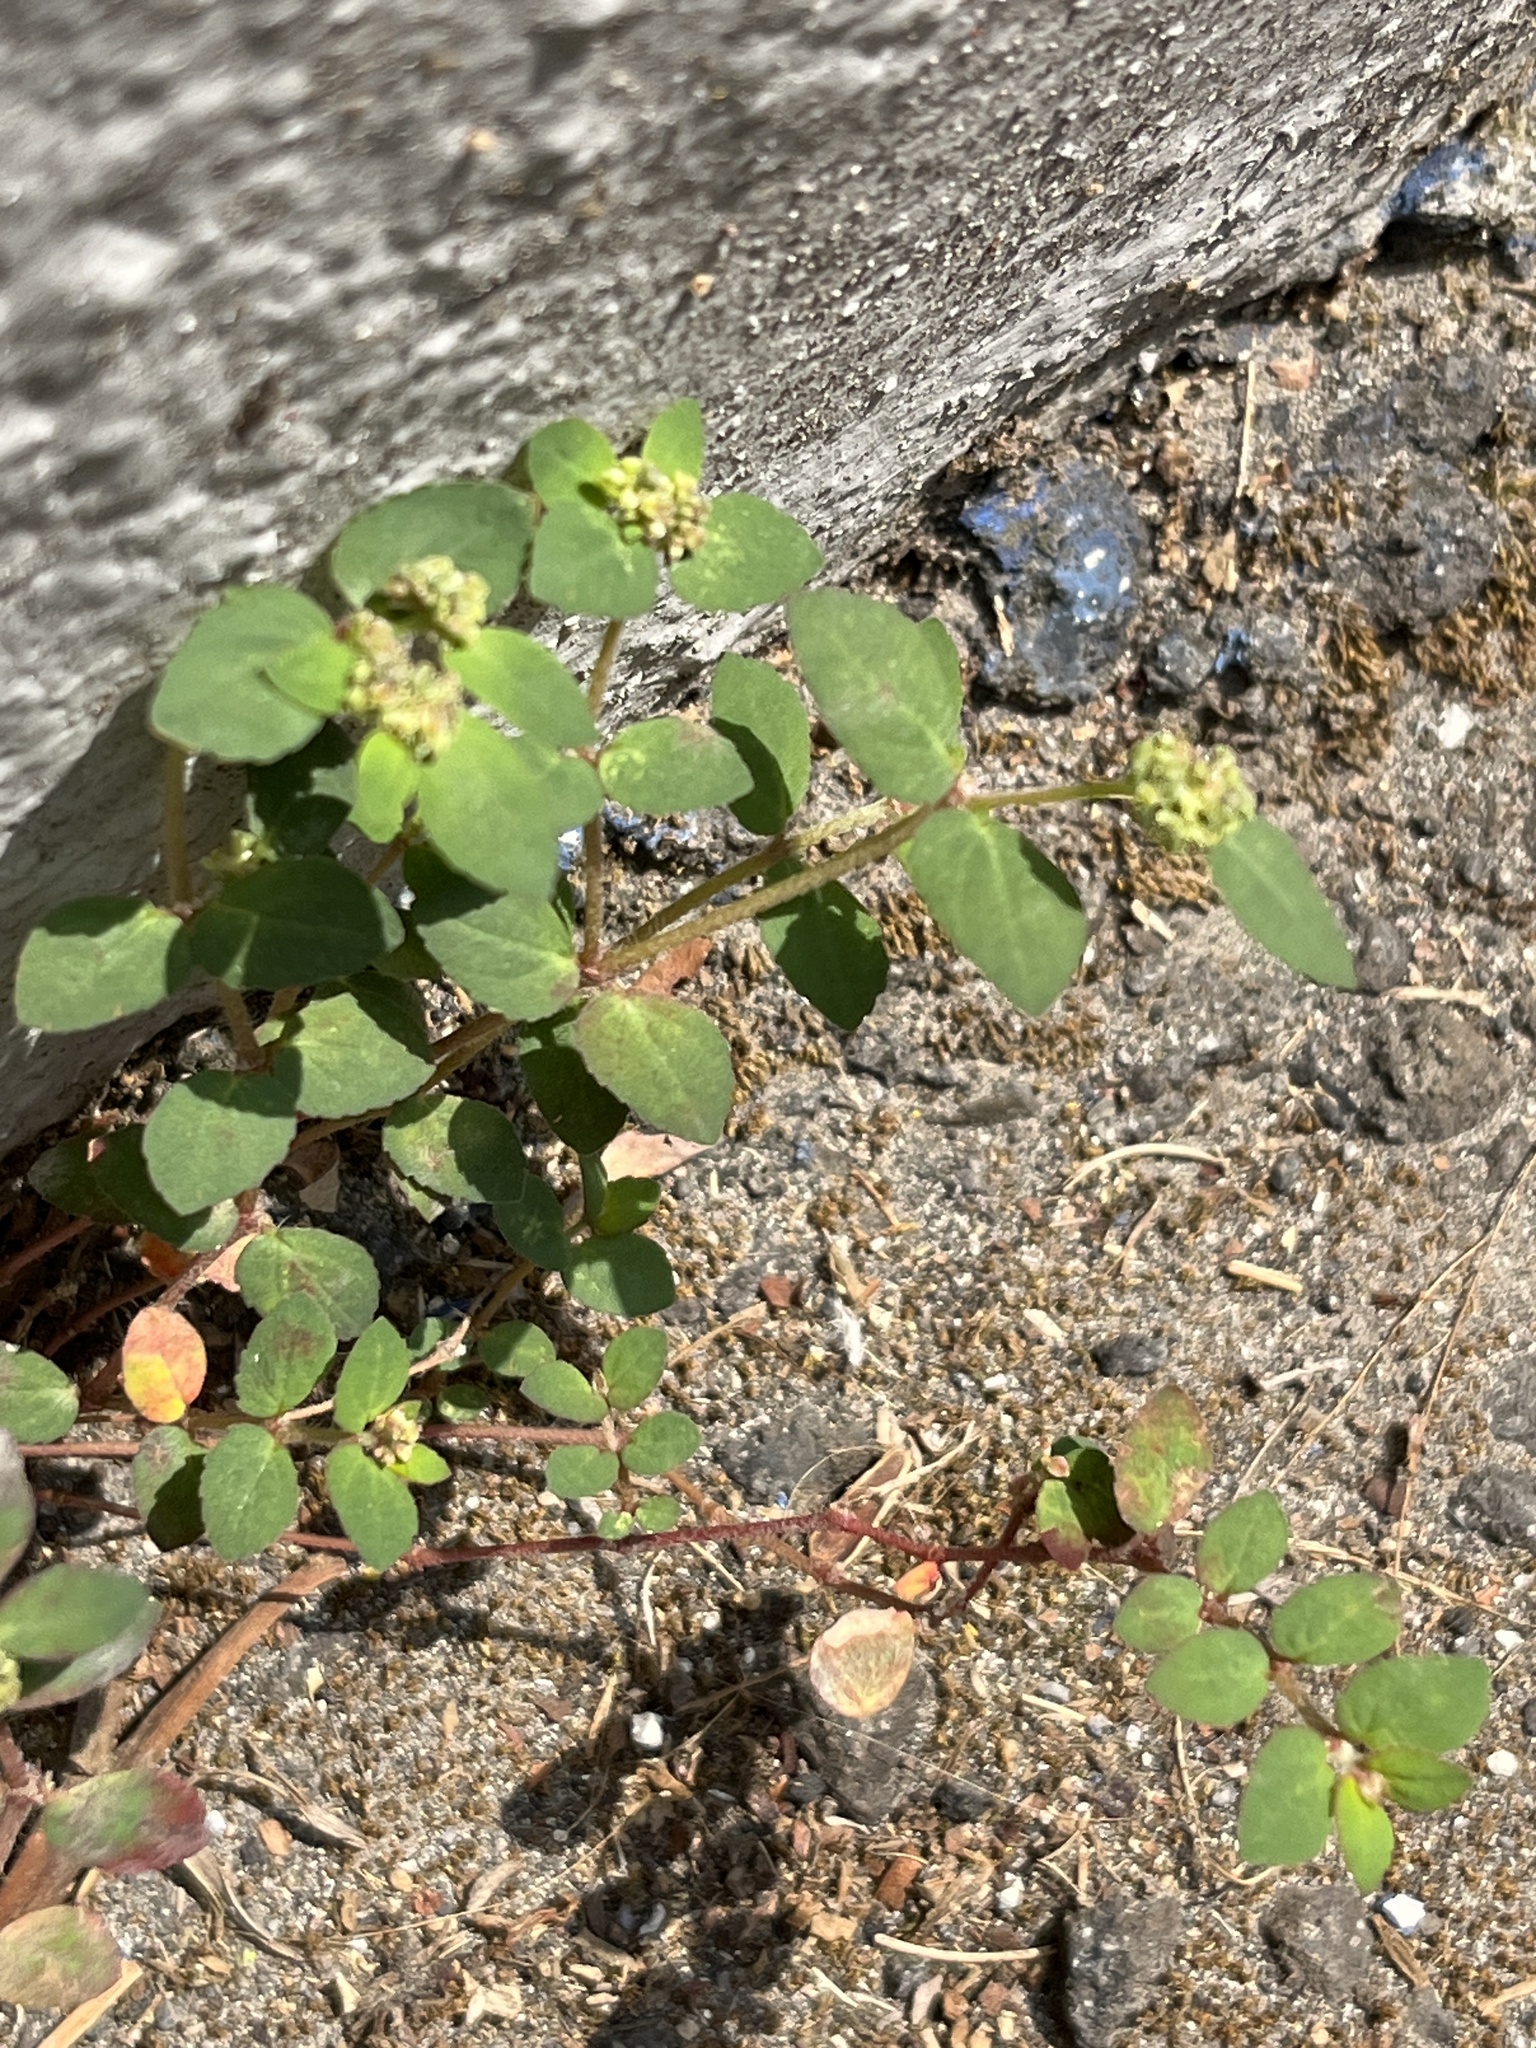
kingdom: Plantae
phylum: Tracheophyta
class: Magnoliopsida
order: Malpighiales
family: Euphorbiaceae
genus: Euphorbia
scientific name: Euphorbia ophthalmica
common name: Florida hammock sandmat
